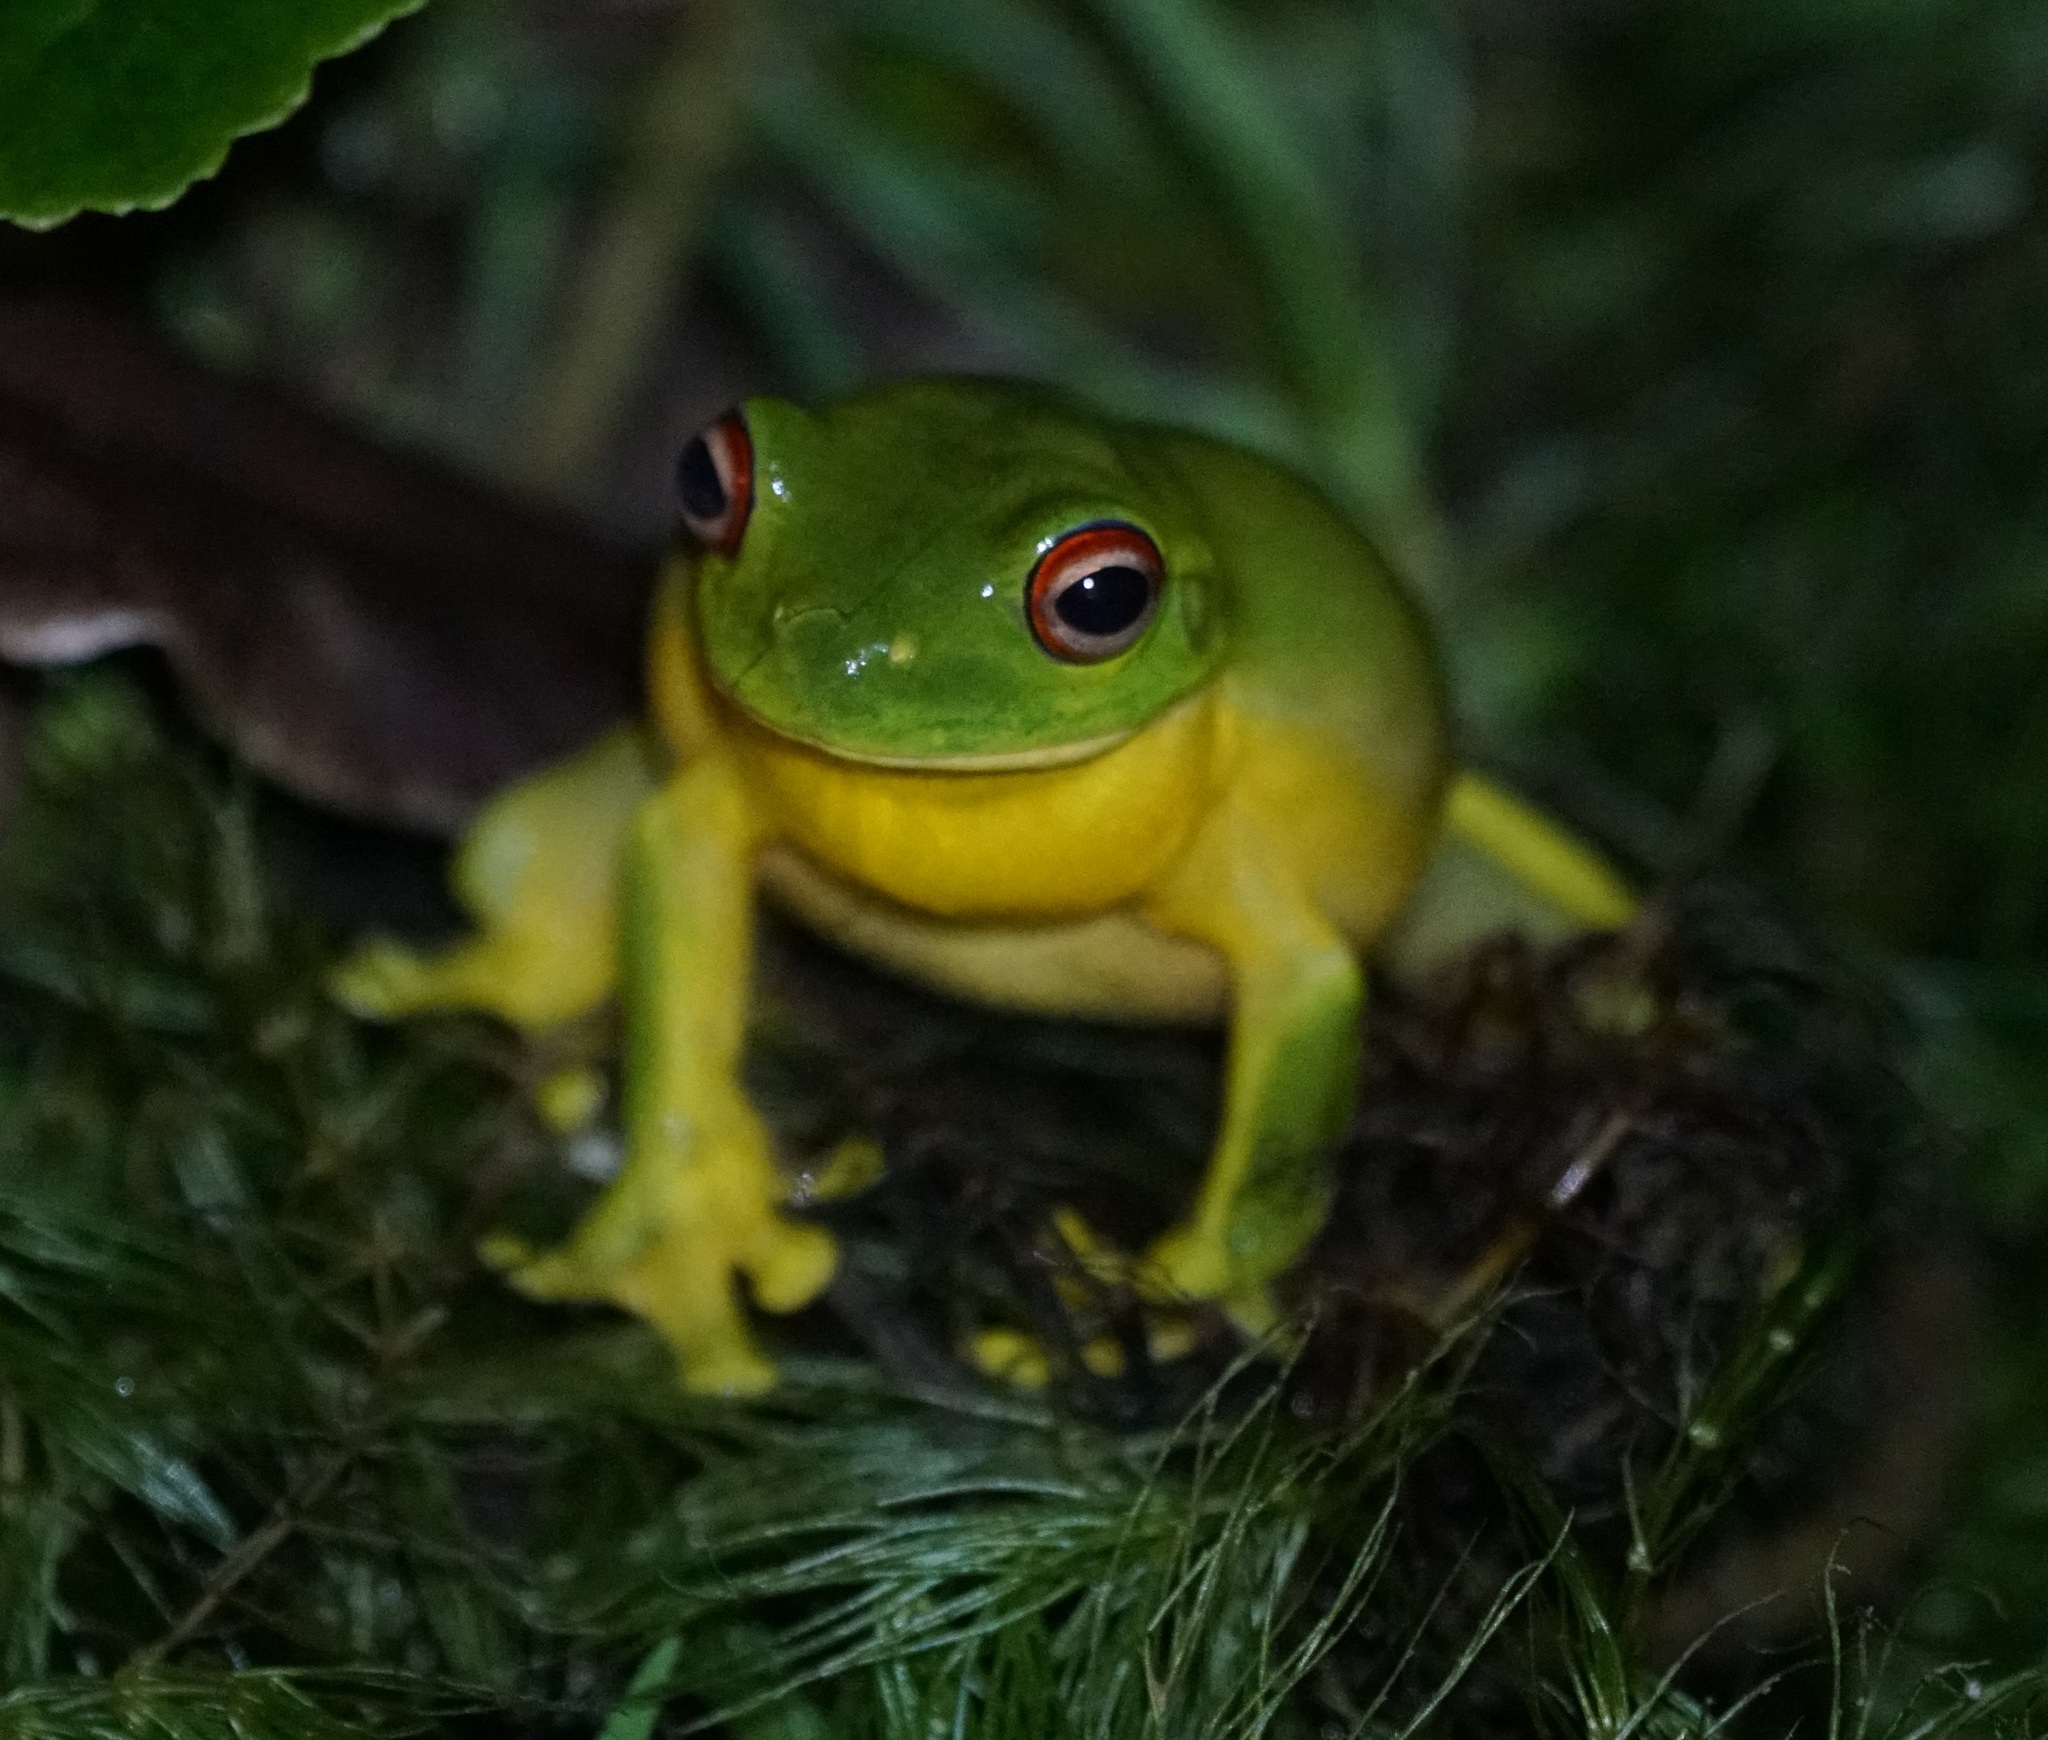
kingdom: Animalia
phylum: Chordata
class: Amphibia
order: Anura
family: Pelodryadidae
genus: Ranoidea
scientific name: Ranoidea chloris
